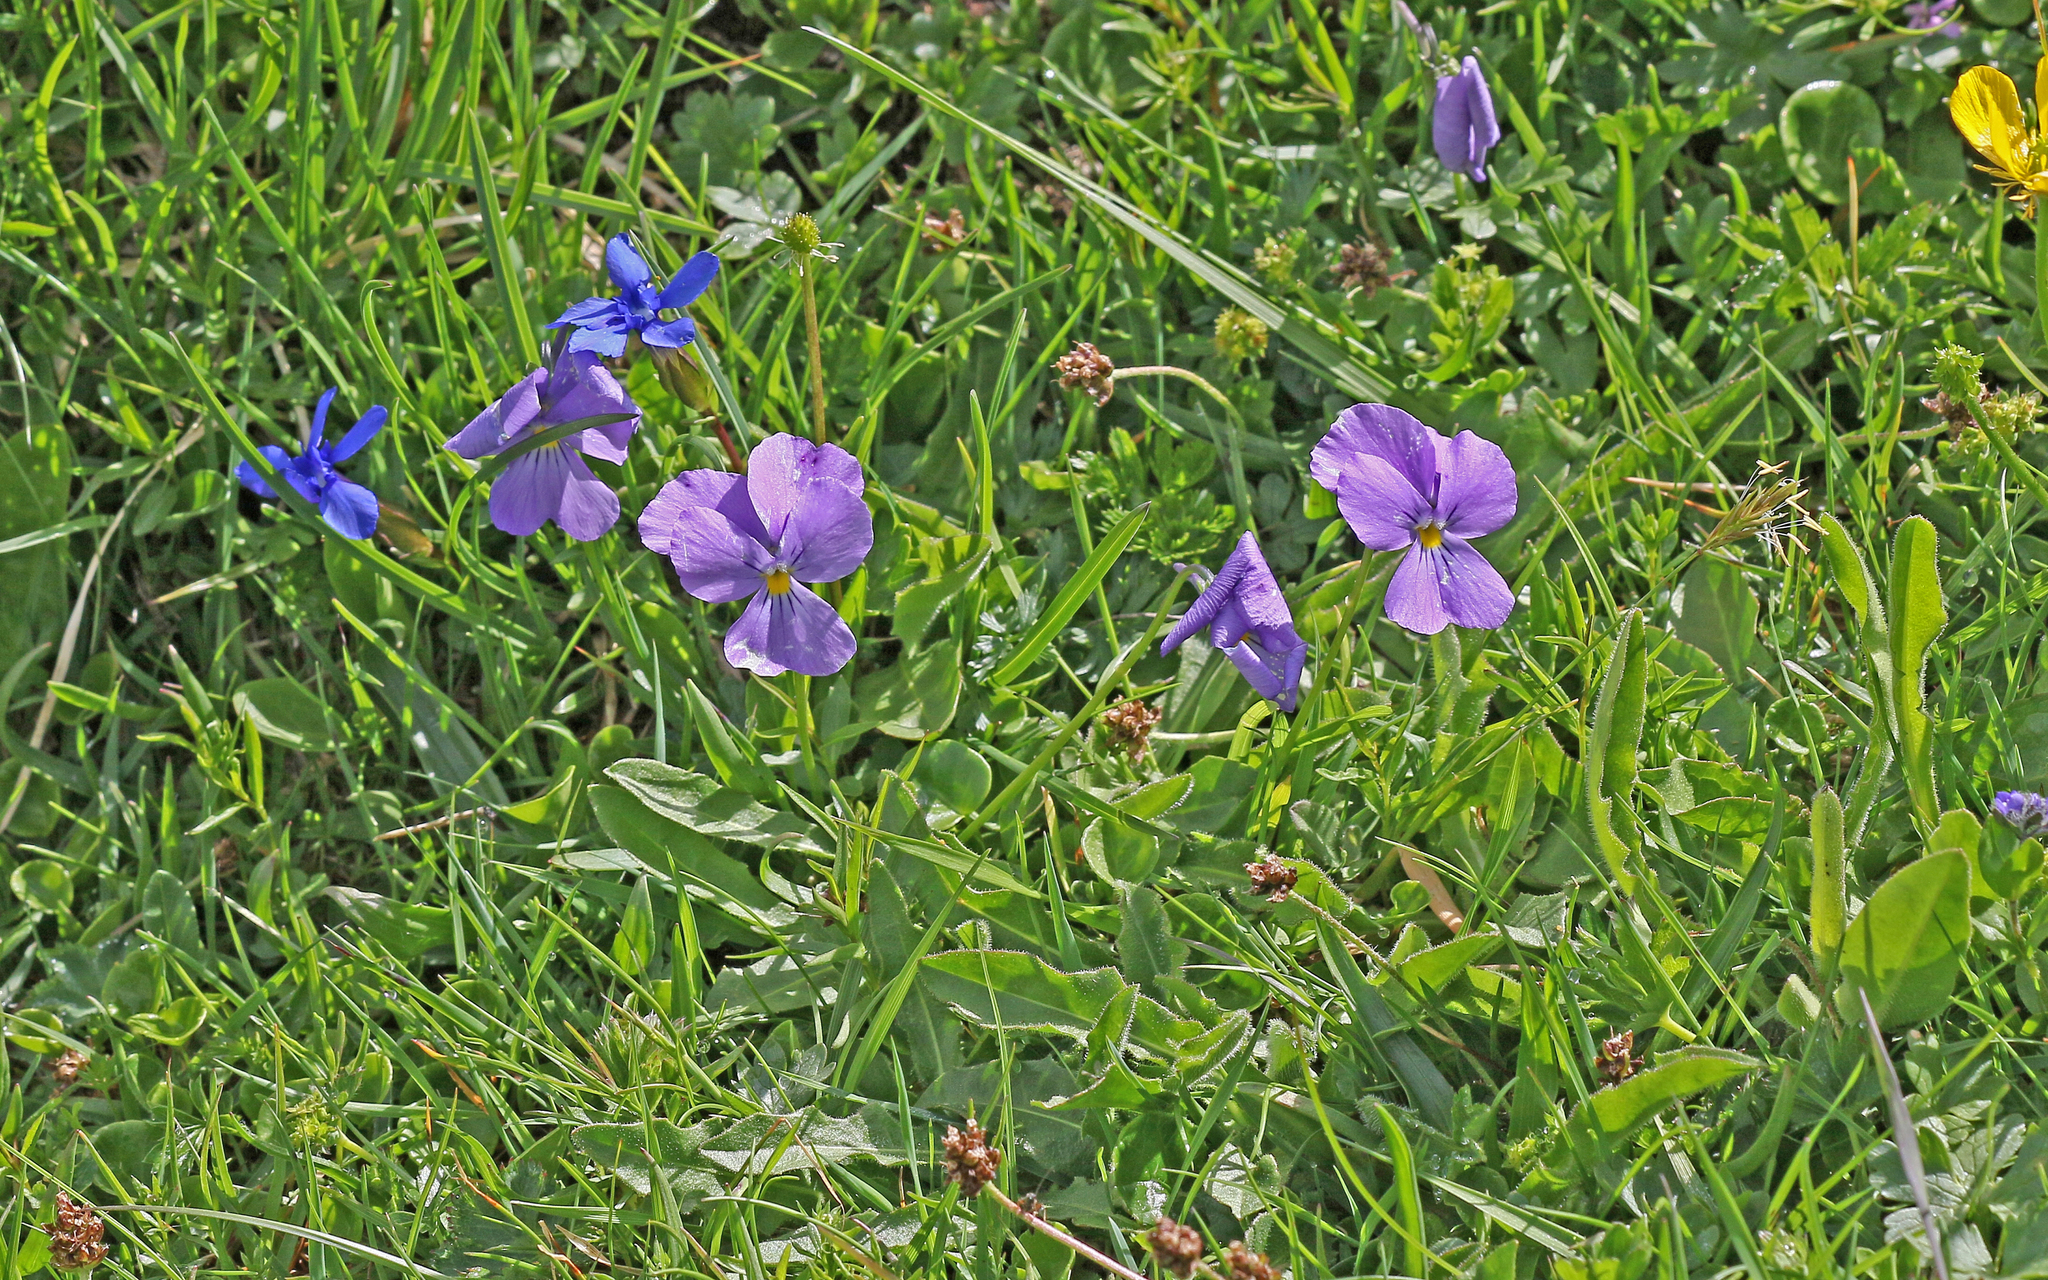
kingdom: Plantae
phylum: Tracheophyta
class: Magnoliopsida
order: Malpighiales
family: Violaceae
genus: Viola
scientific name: Viola calcarata
